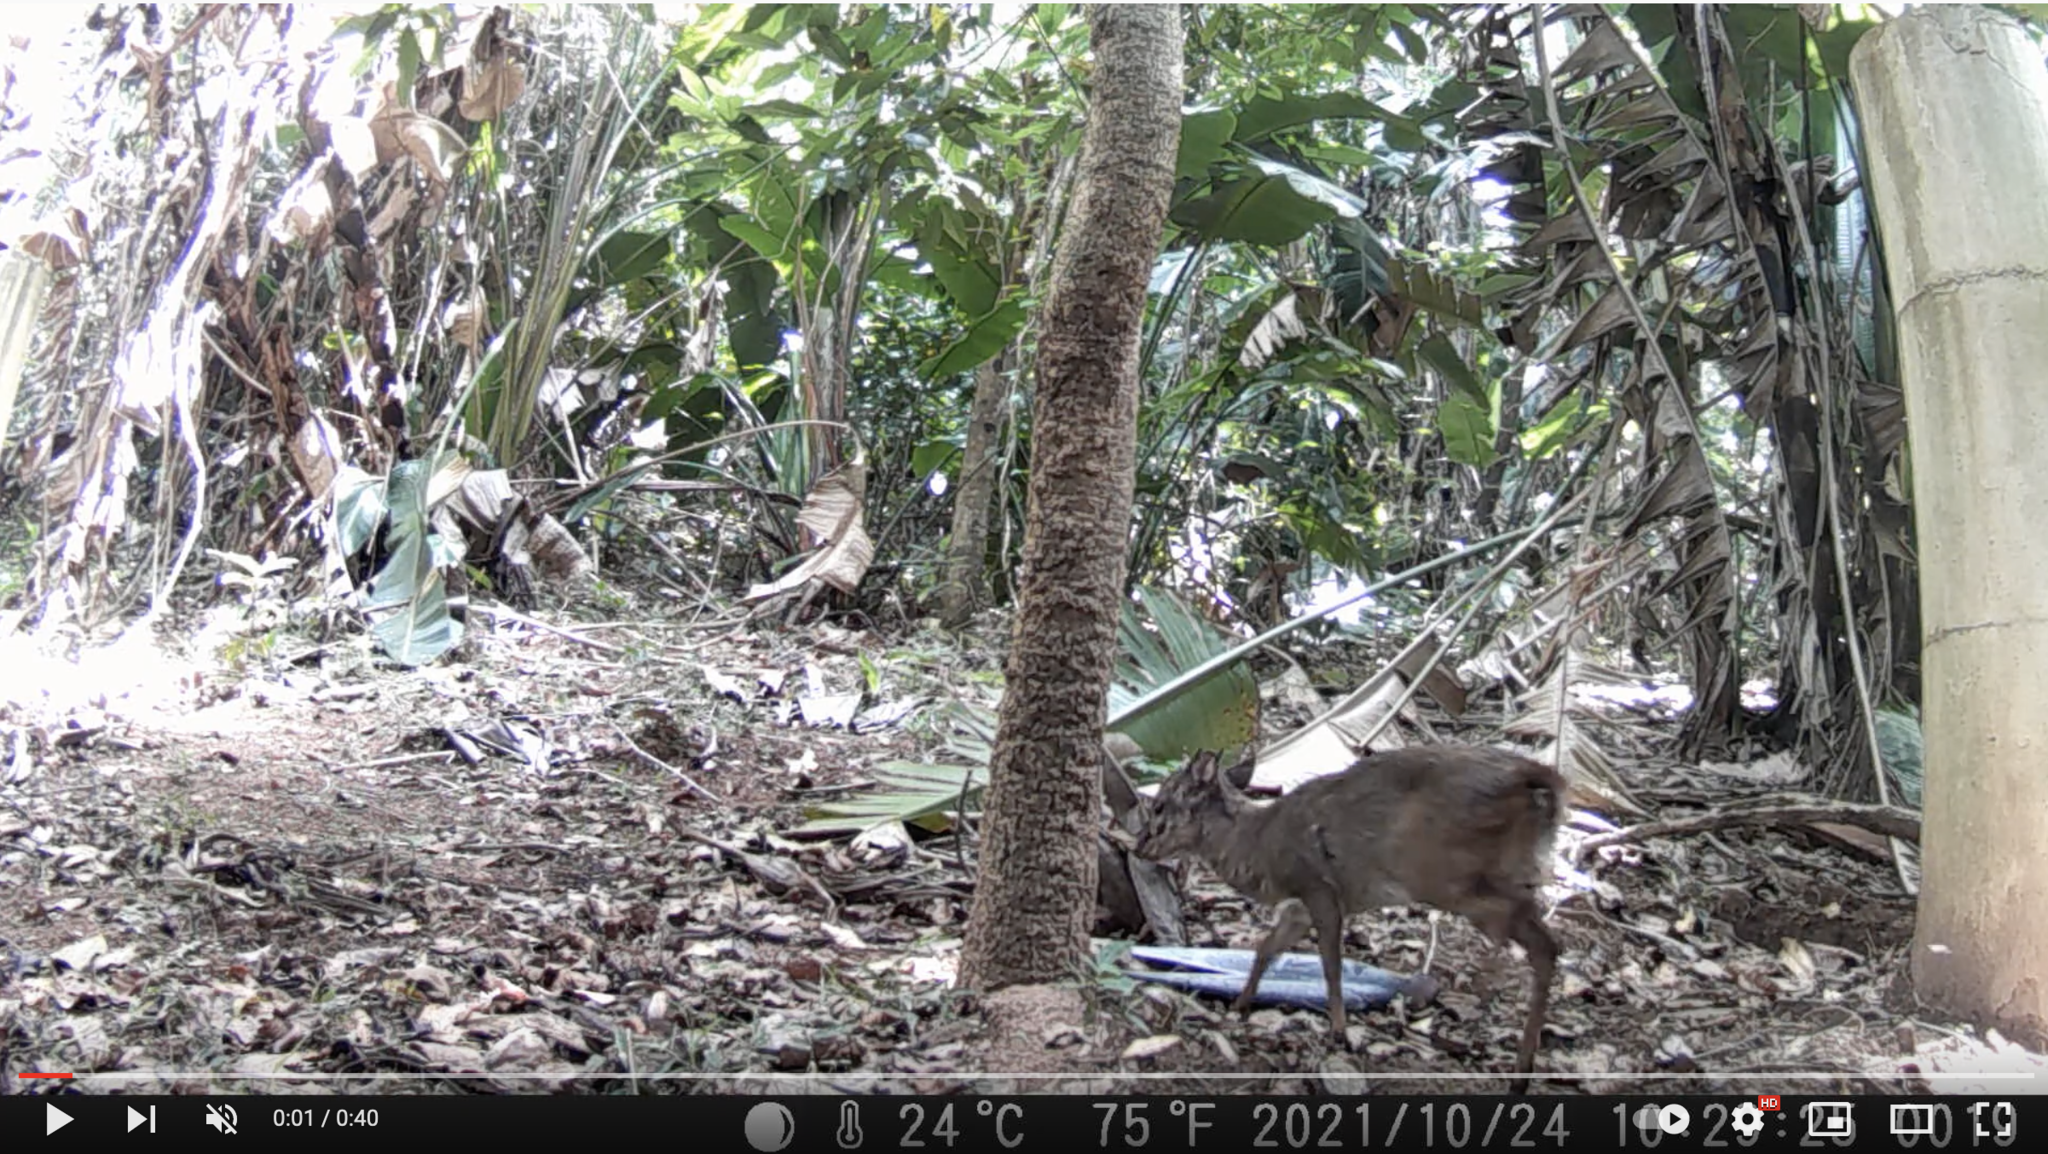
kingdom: Animalia
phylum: Chordata
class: Mammalia
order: Artiodactyla
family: Bovidae
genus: Philantomba
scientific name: Philantomba monticola
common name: Blue duiker
